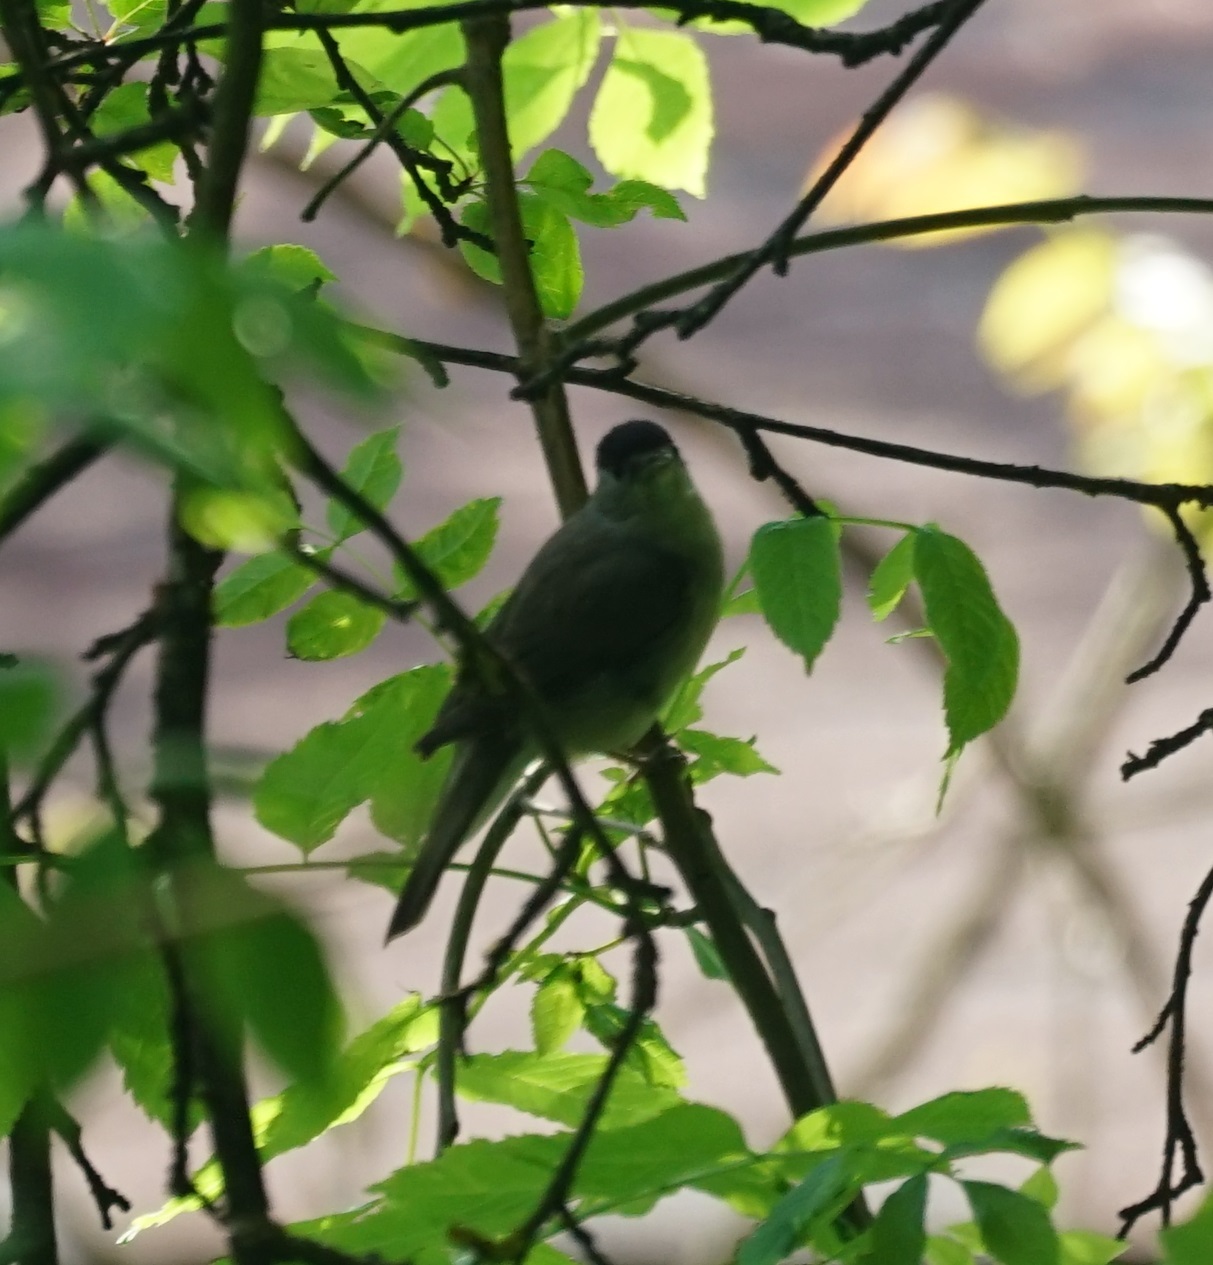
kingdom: Animalia
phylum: Chordata
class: Aves
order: Passeriformes
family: Sylviidae
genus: Sylvia
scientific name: Sylvia atricapilla
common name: Eurasian blackcap
